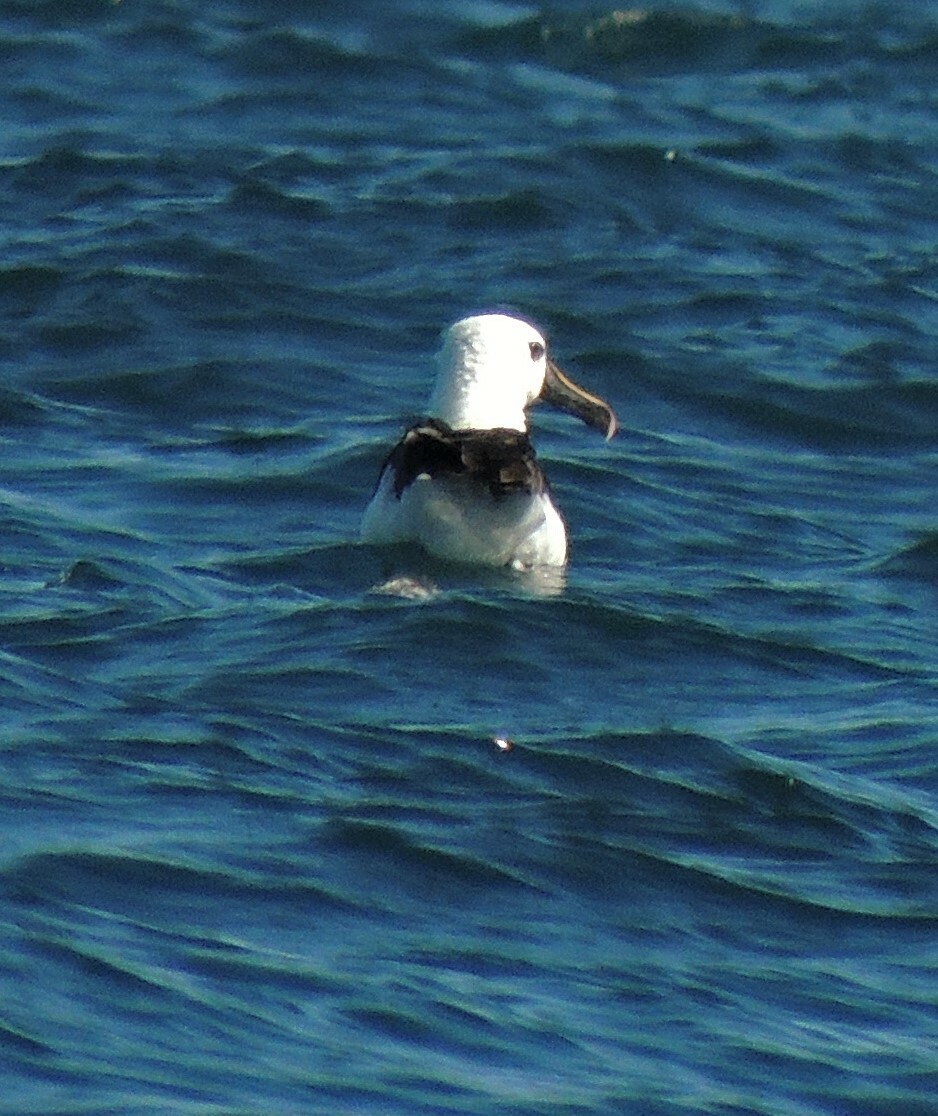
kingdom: Animalia
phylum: Chordata
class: Aves
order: Procellariiformes
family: Diomedeidae
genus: Thalassarche
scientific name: Thalassarche chlororhynchos
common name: Atlantic yellow-nosed albatross
